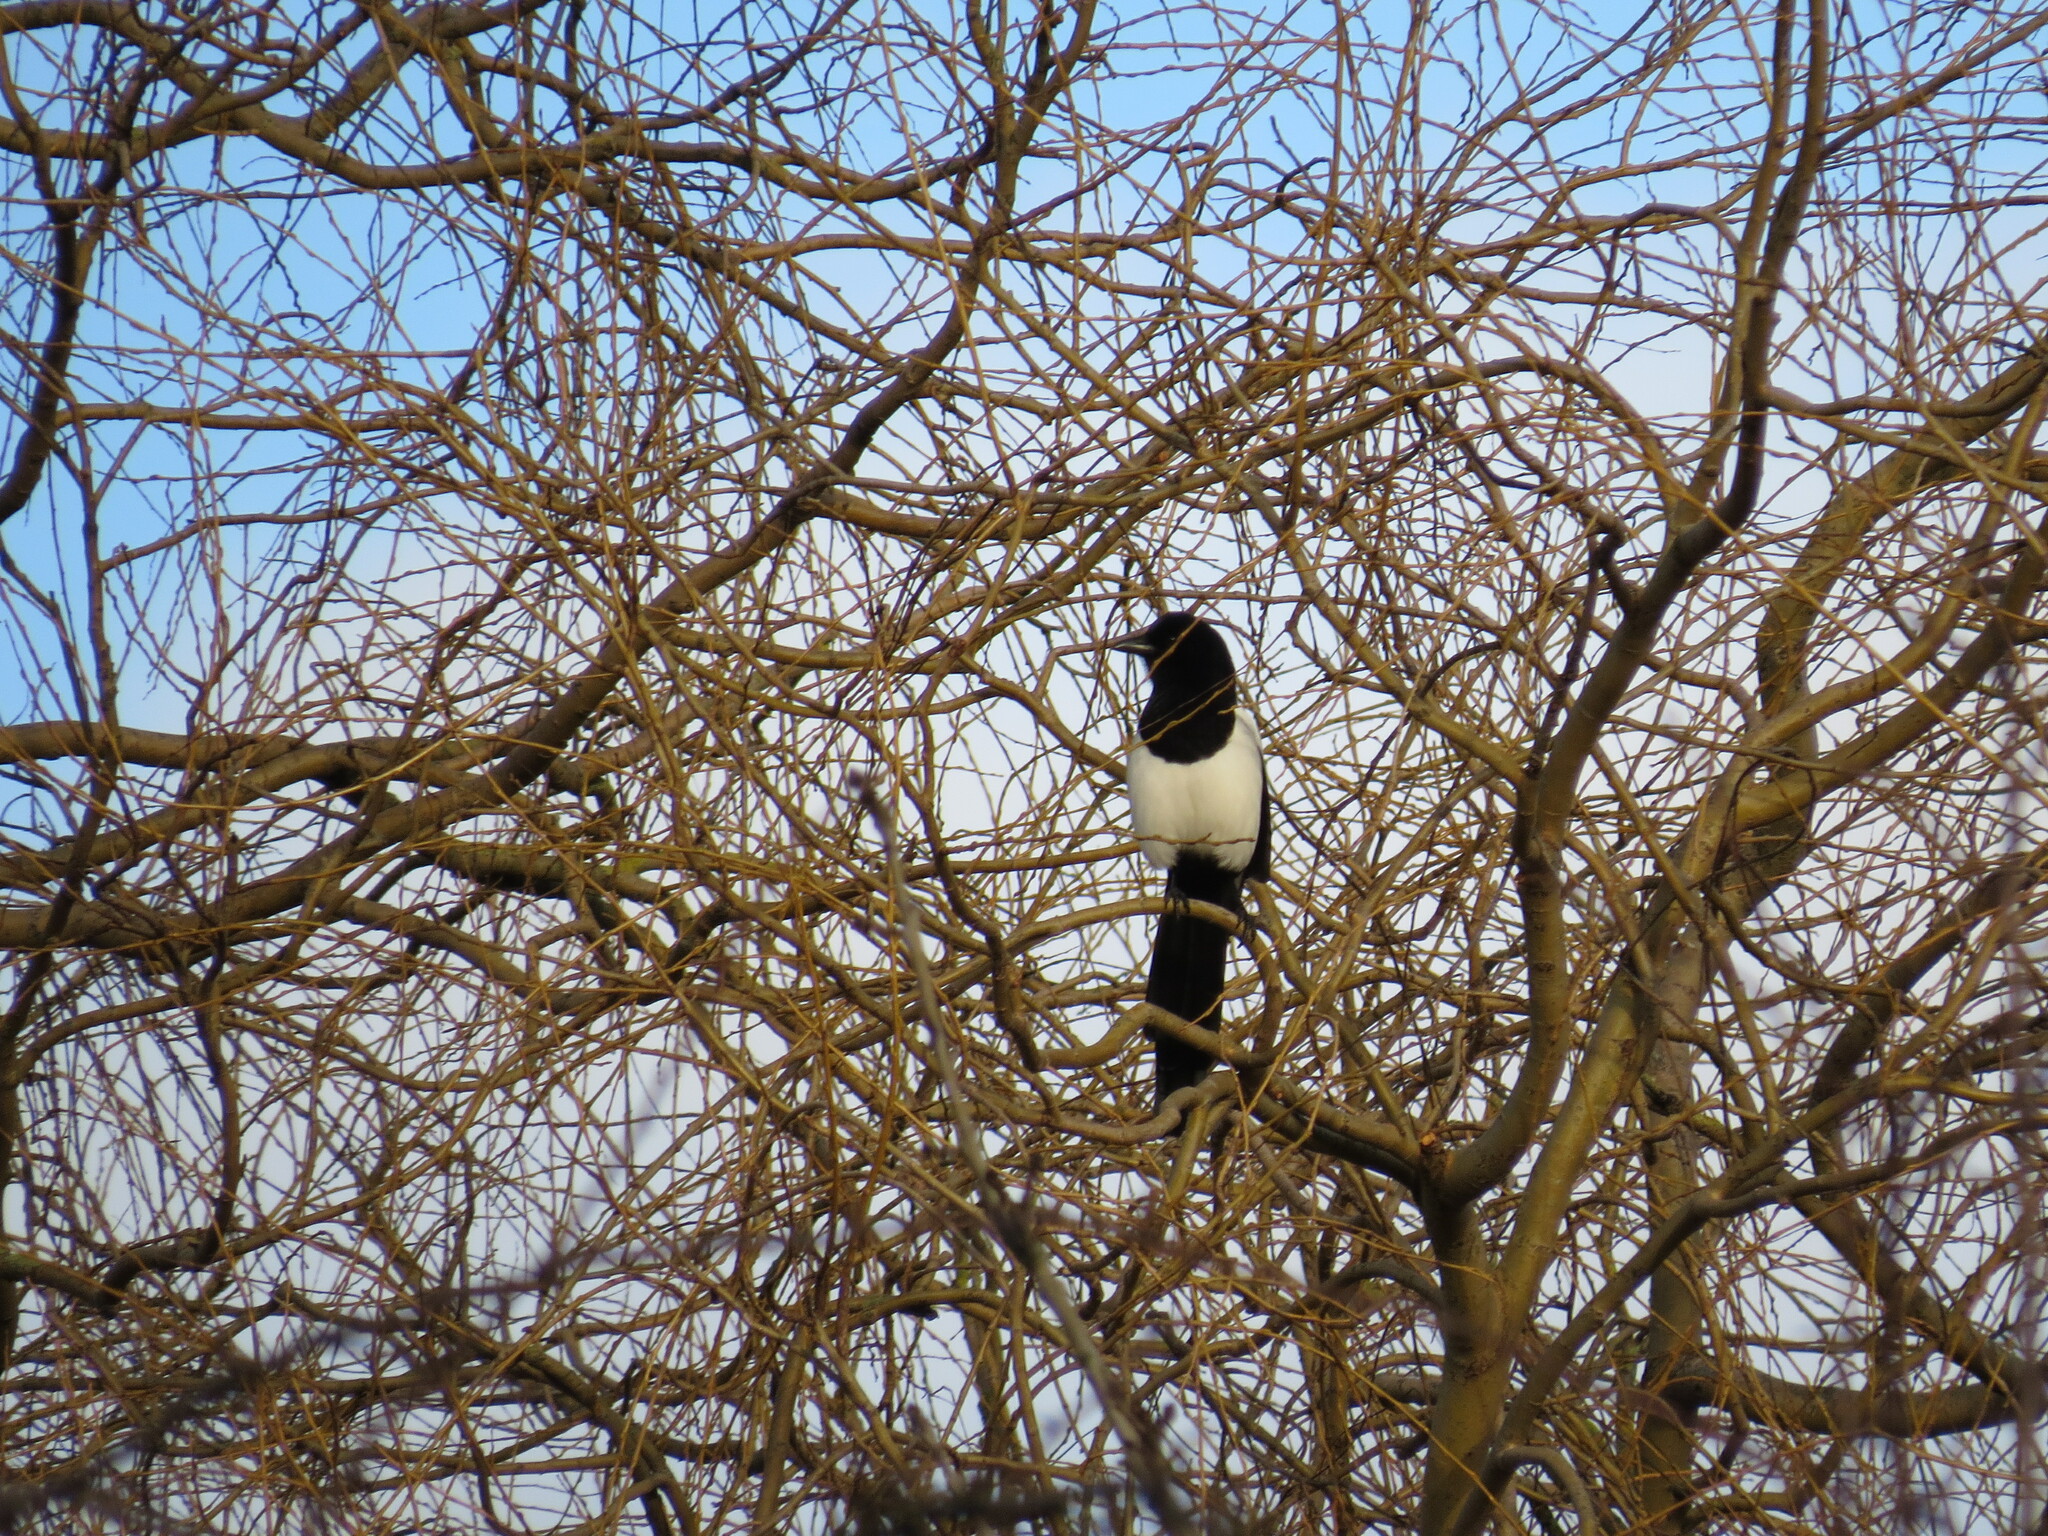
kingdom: Animalia
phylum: Chordata
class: Aves
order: Passeriformes
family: Corvidae
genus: Pica
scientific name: Pica pica
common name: Eurasian magpie
